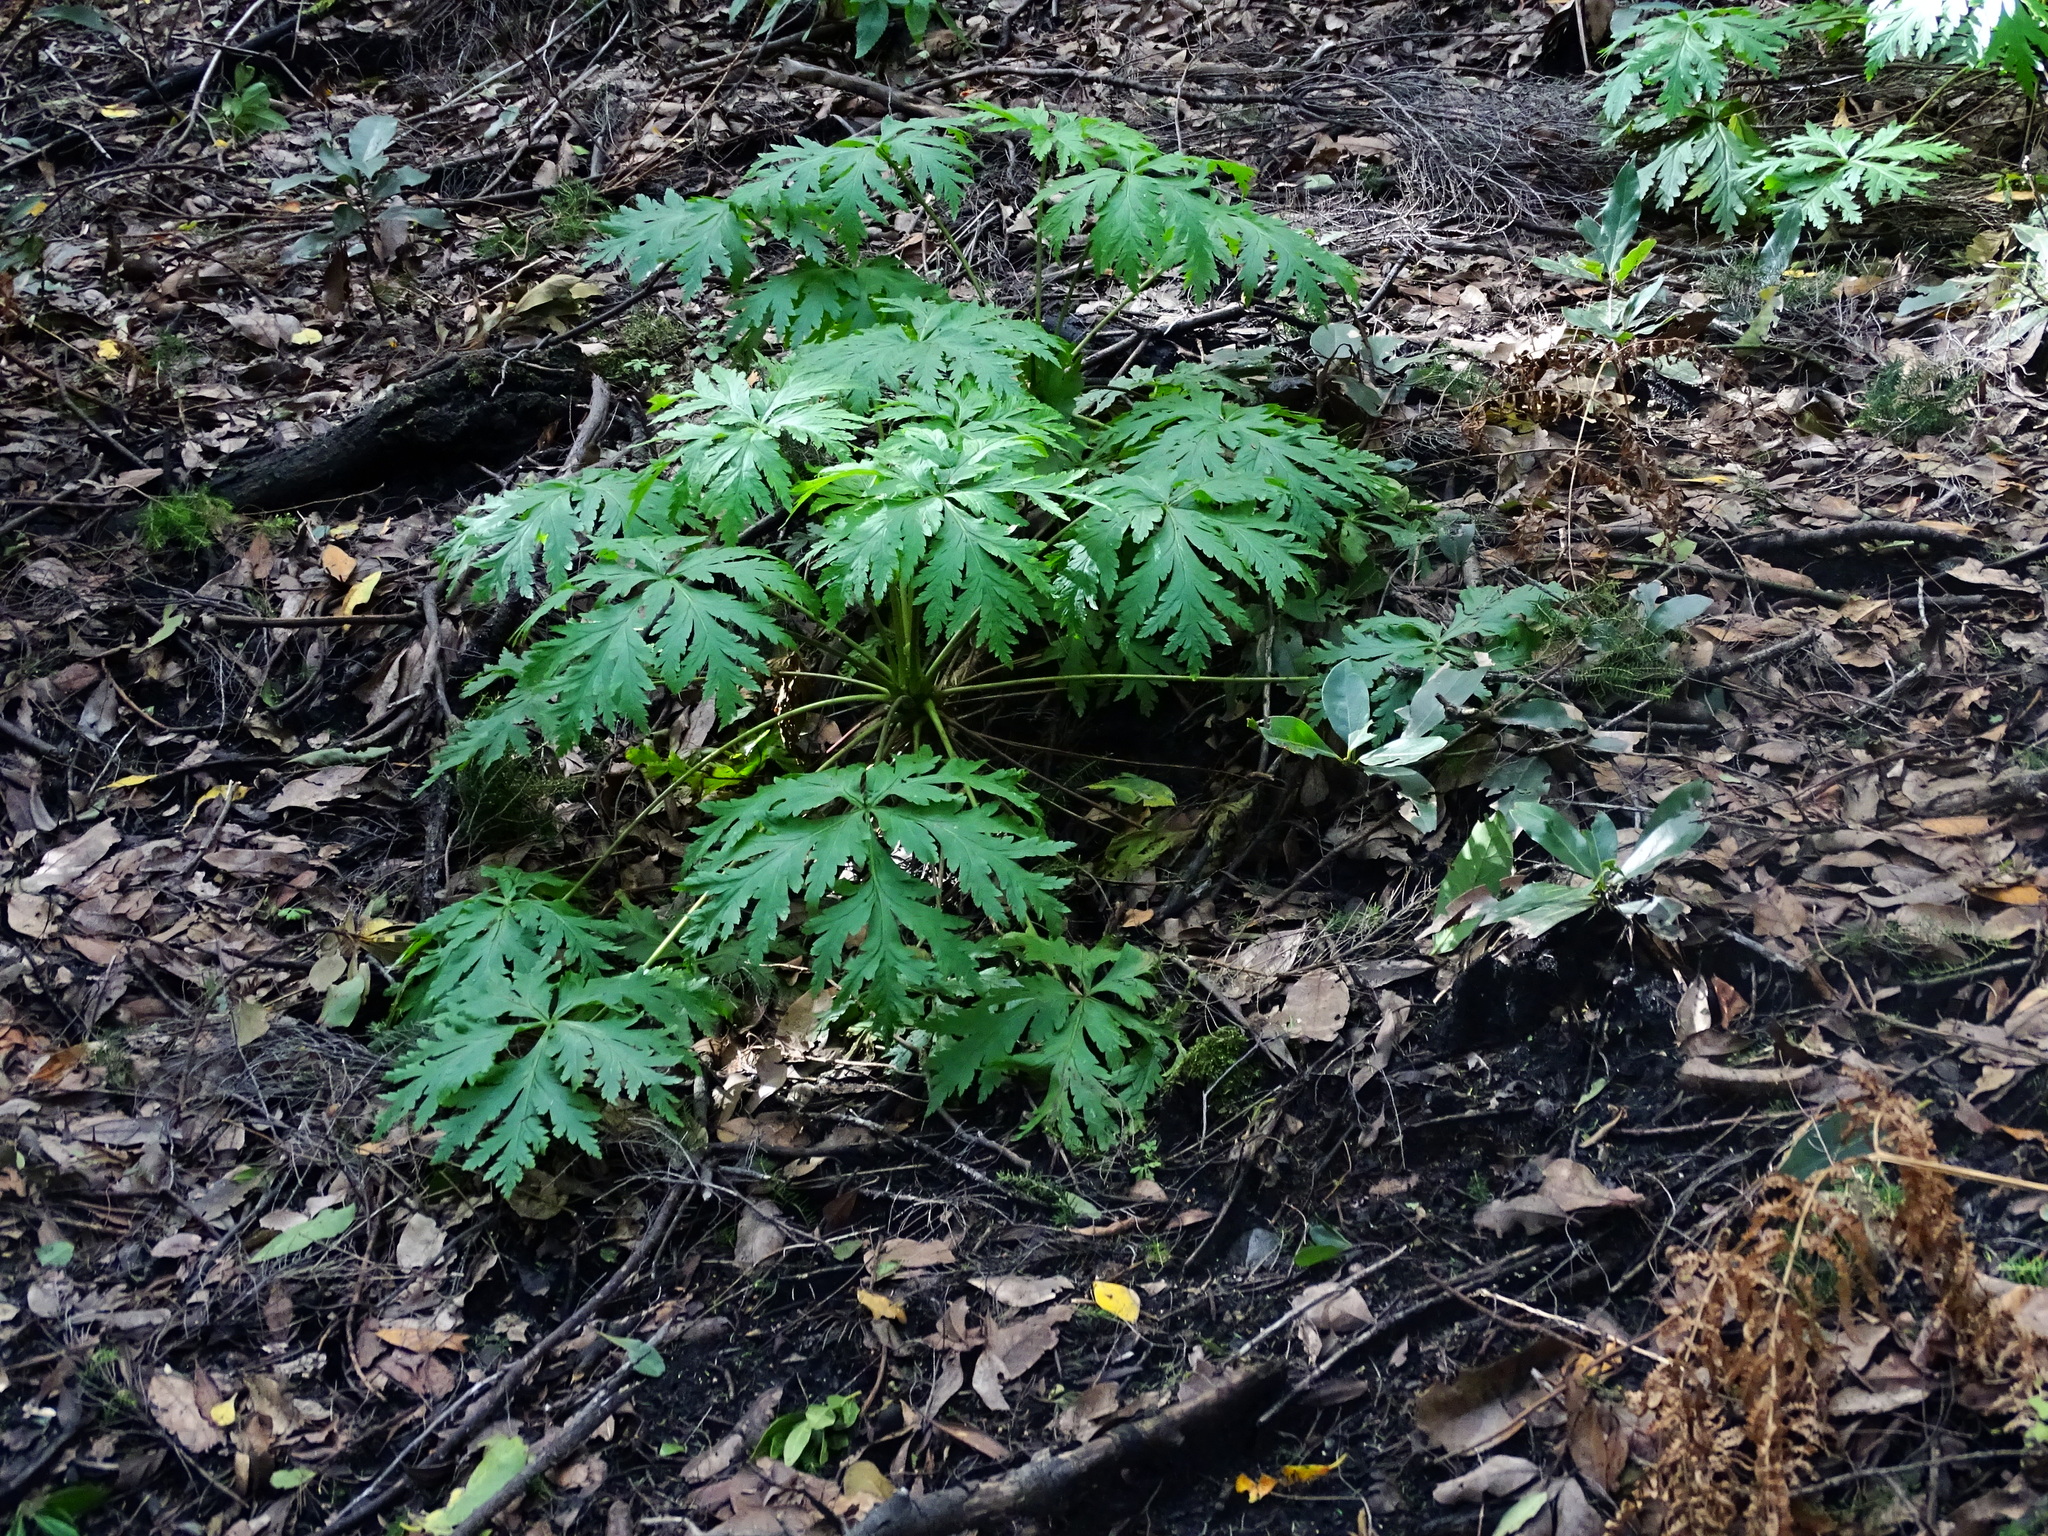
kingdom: Plantae
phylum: Tracheophyta
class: Magnoliopsida
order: Geraniales
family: Geraniaceae
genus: Geranium
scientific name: Geranium reuteri
